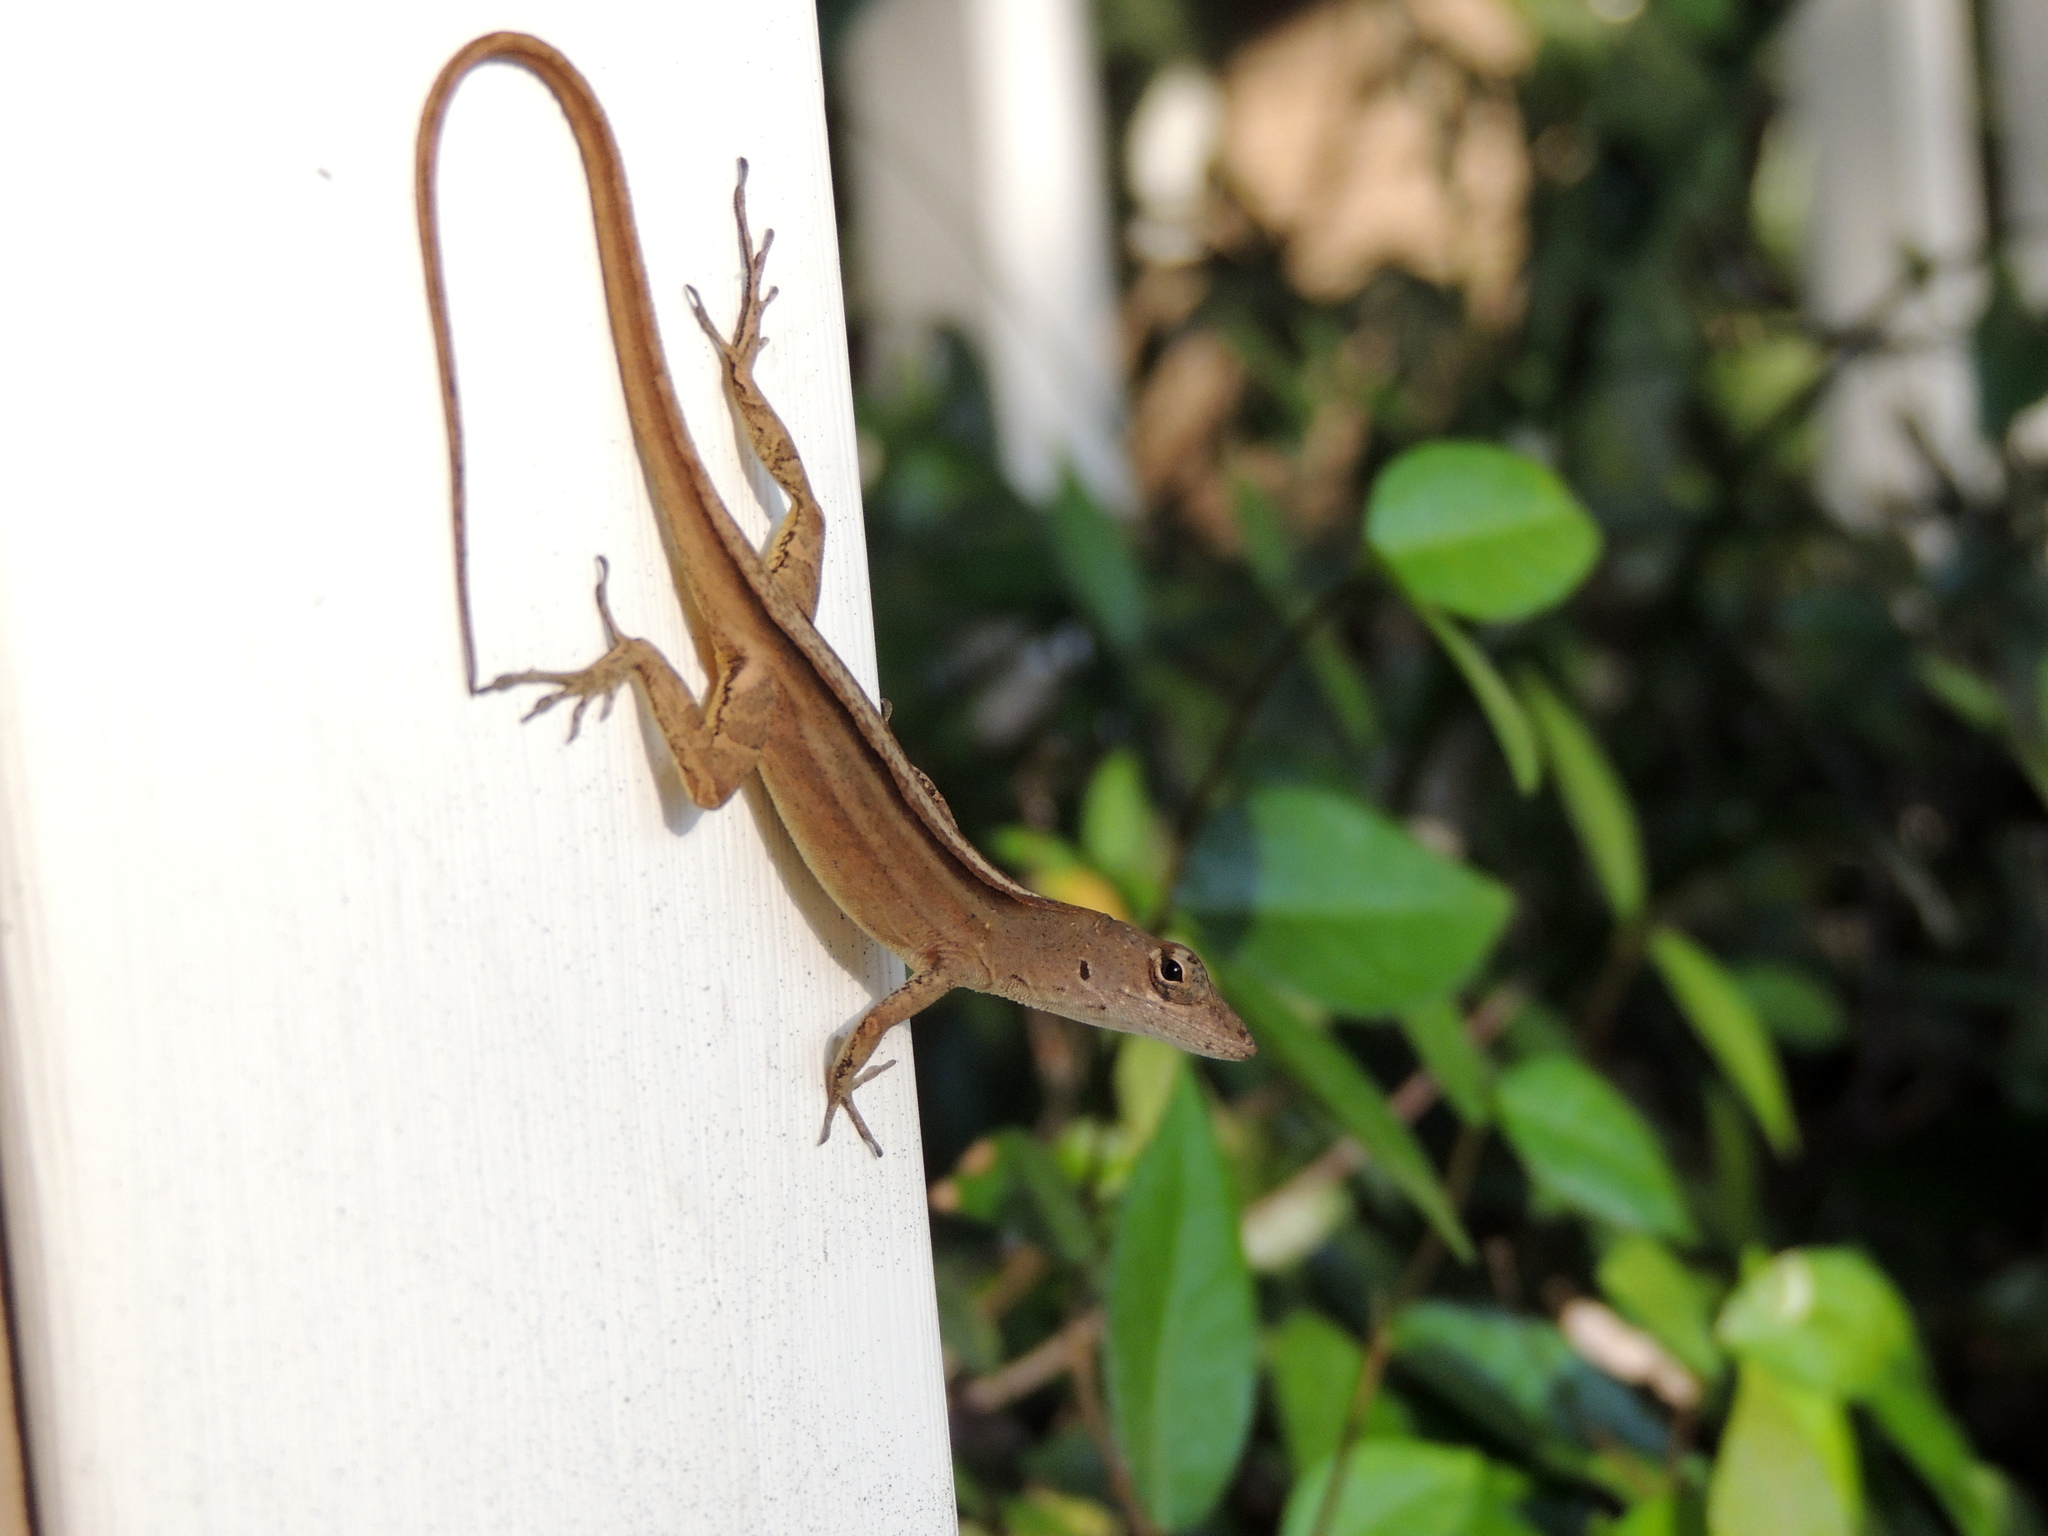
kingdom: Animalia
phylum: Chordata
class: Squamata
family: Dactyloidae
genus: Anolis
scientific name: Anolis sagrei
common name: Brown anole
